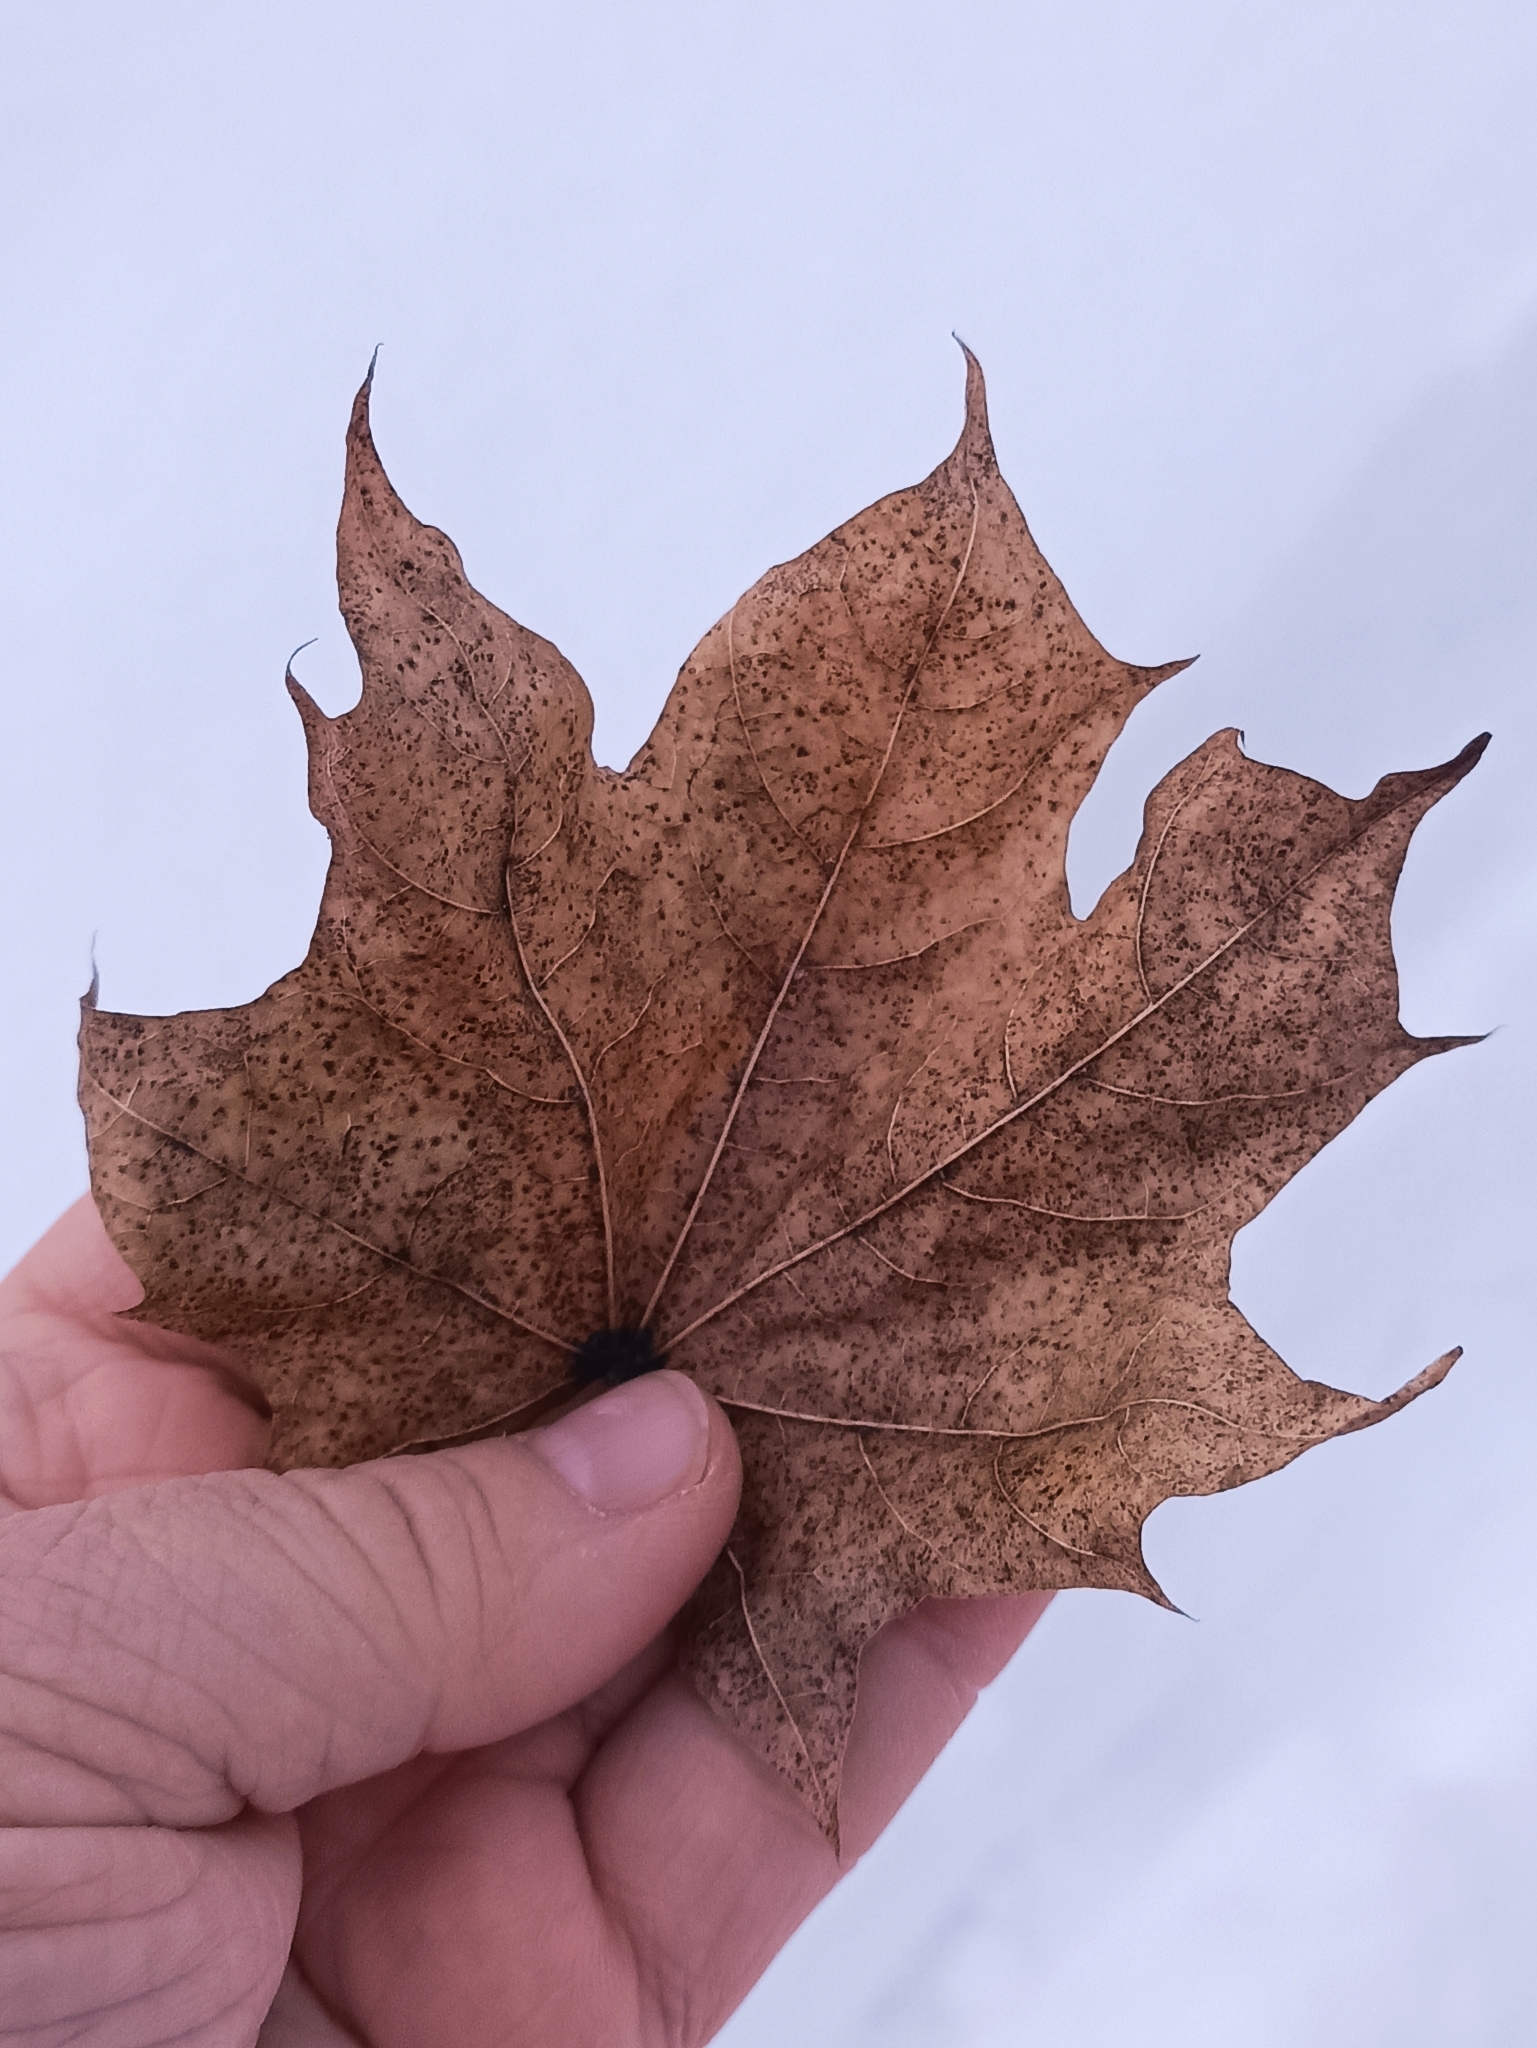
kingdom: Plantae
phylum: Tracheophyta
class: Magnoliopsida
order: Sapindales
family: Sapindaceae
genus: Acer
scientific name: Acer platanoides
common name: Norway maple
